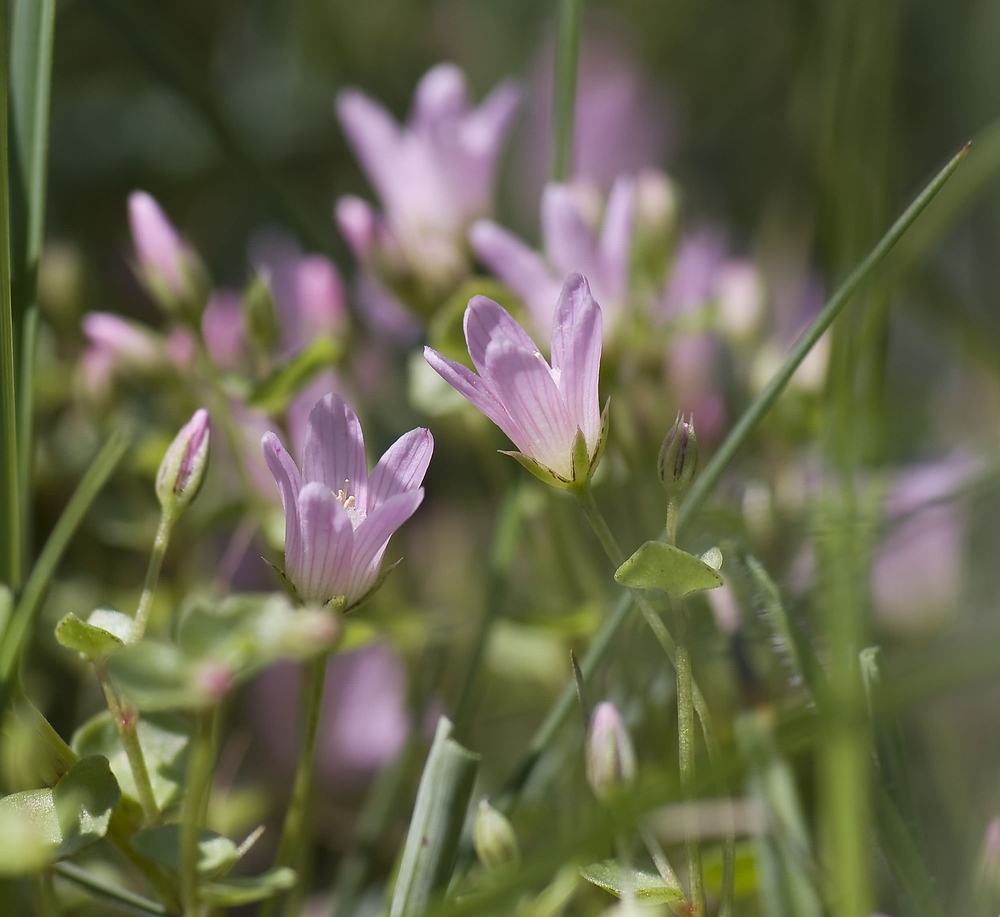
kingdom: Plantae
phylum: Tracheophyta
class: Magnoliopsida
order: Ericales
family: Primulaceae
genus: Lysimachia
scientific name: Lysimachia tenella
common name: European bog pimpernel
